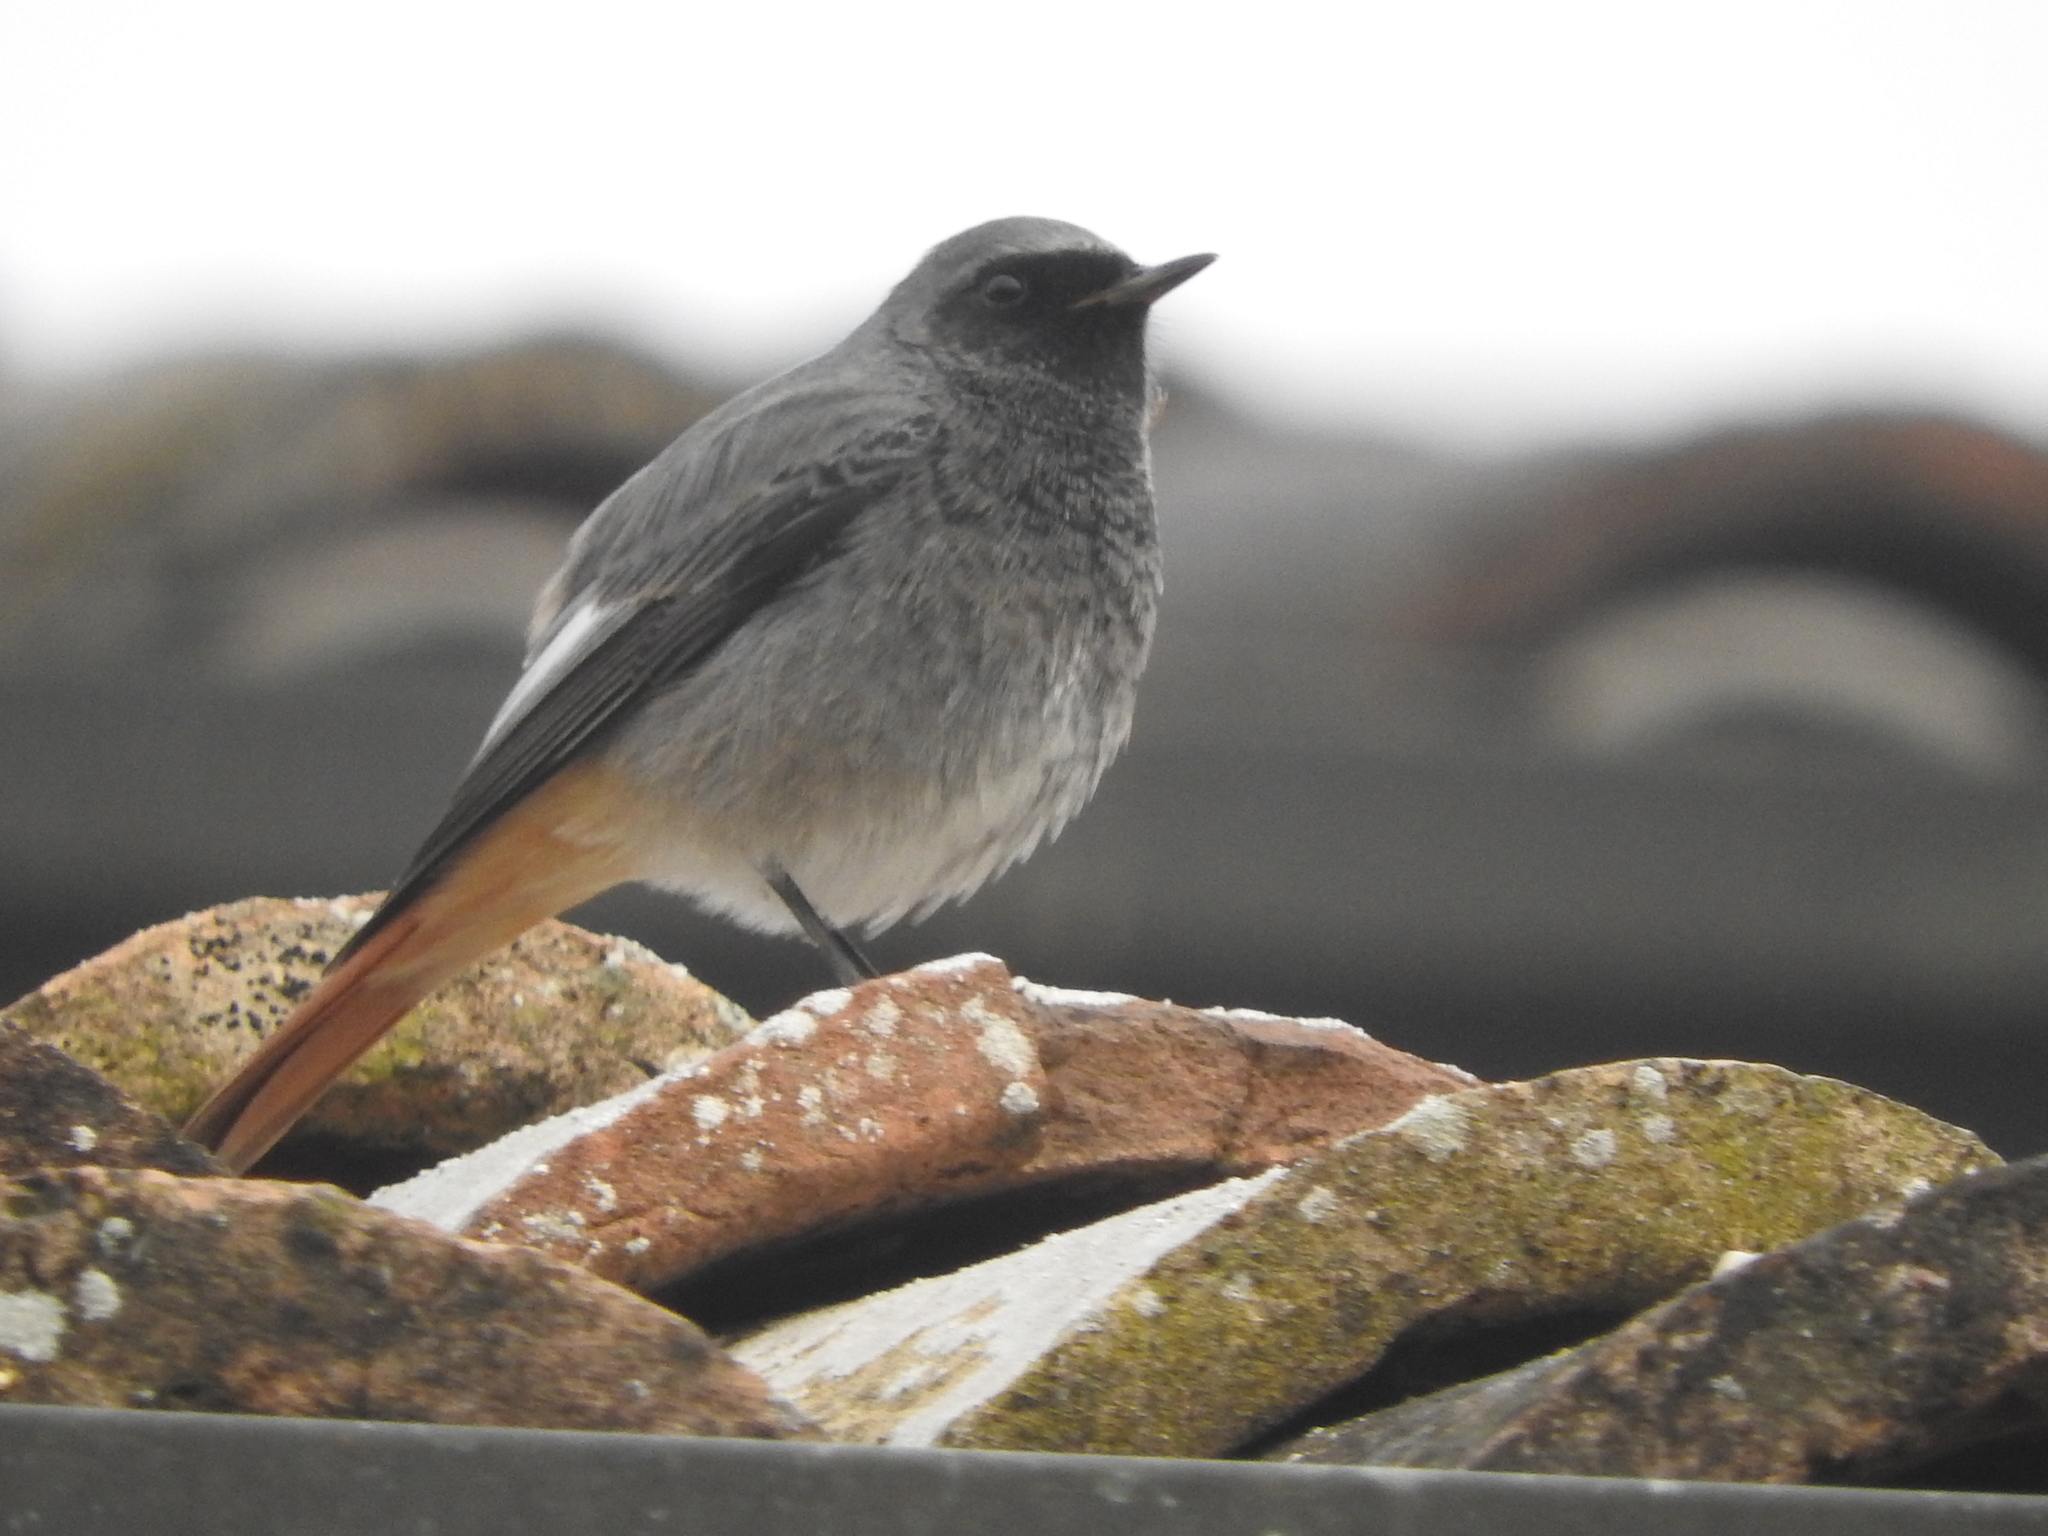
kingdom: Animalia
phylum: Chordata
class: Aves
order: Passeriformes
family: Muscicapidae
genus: Phoenicurus
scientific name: Phoenicurus ochruros
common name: Black redstart
